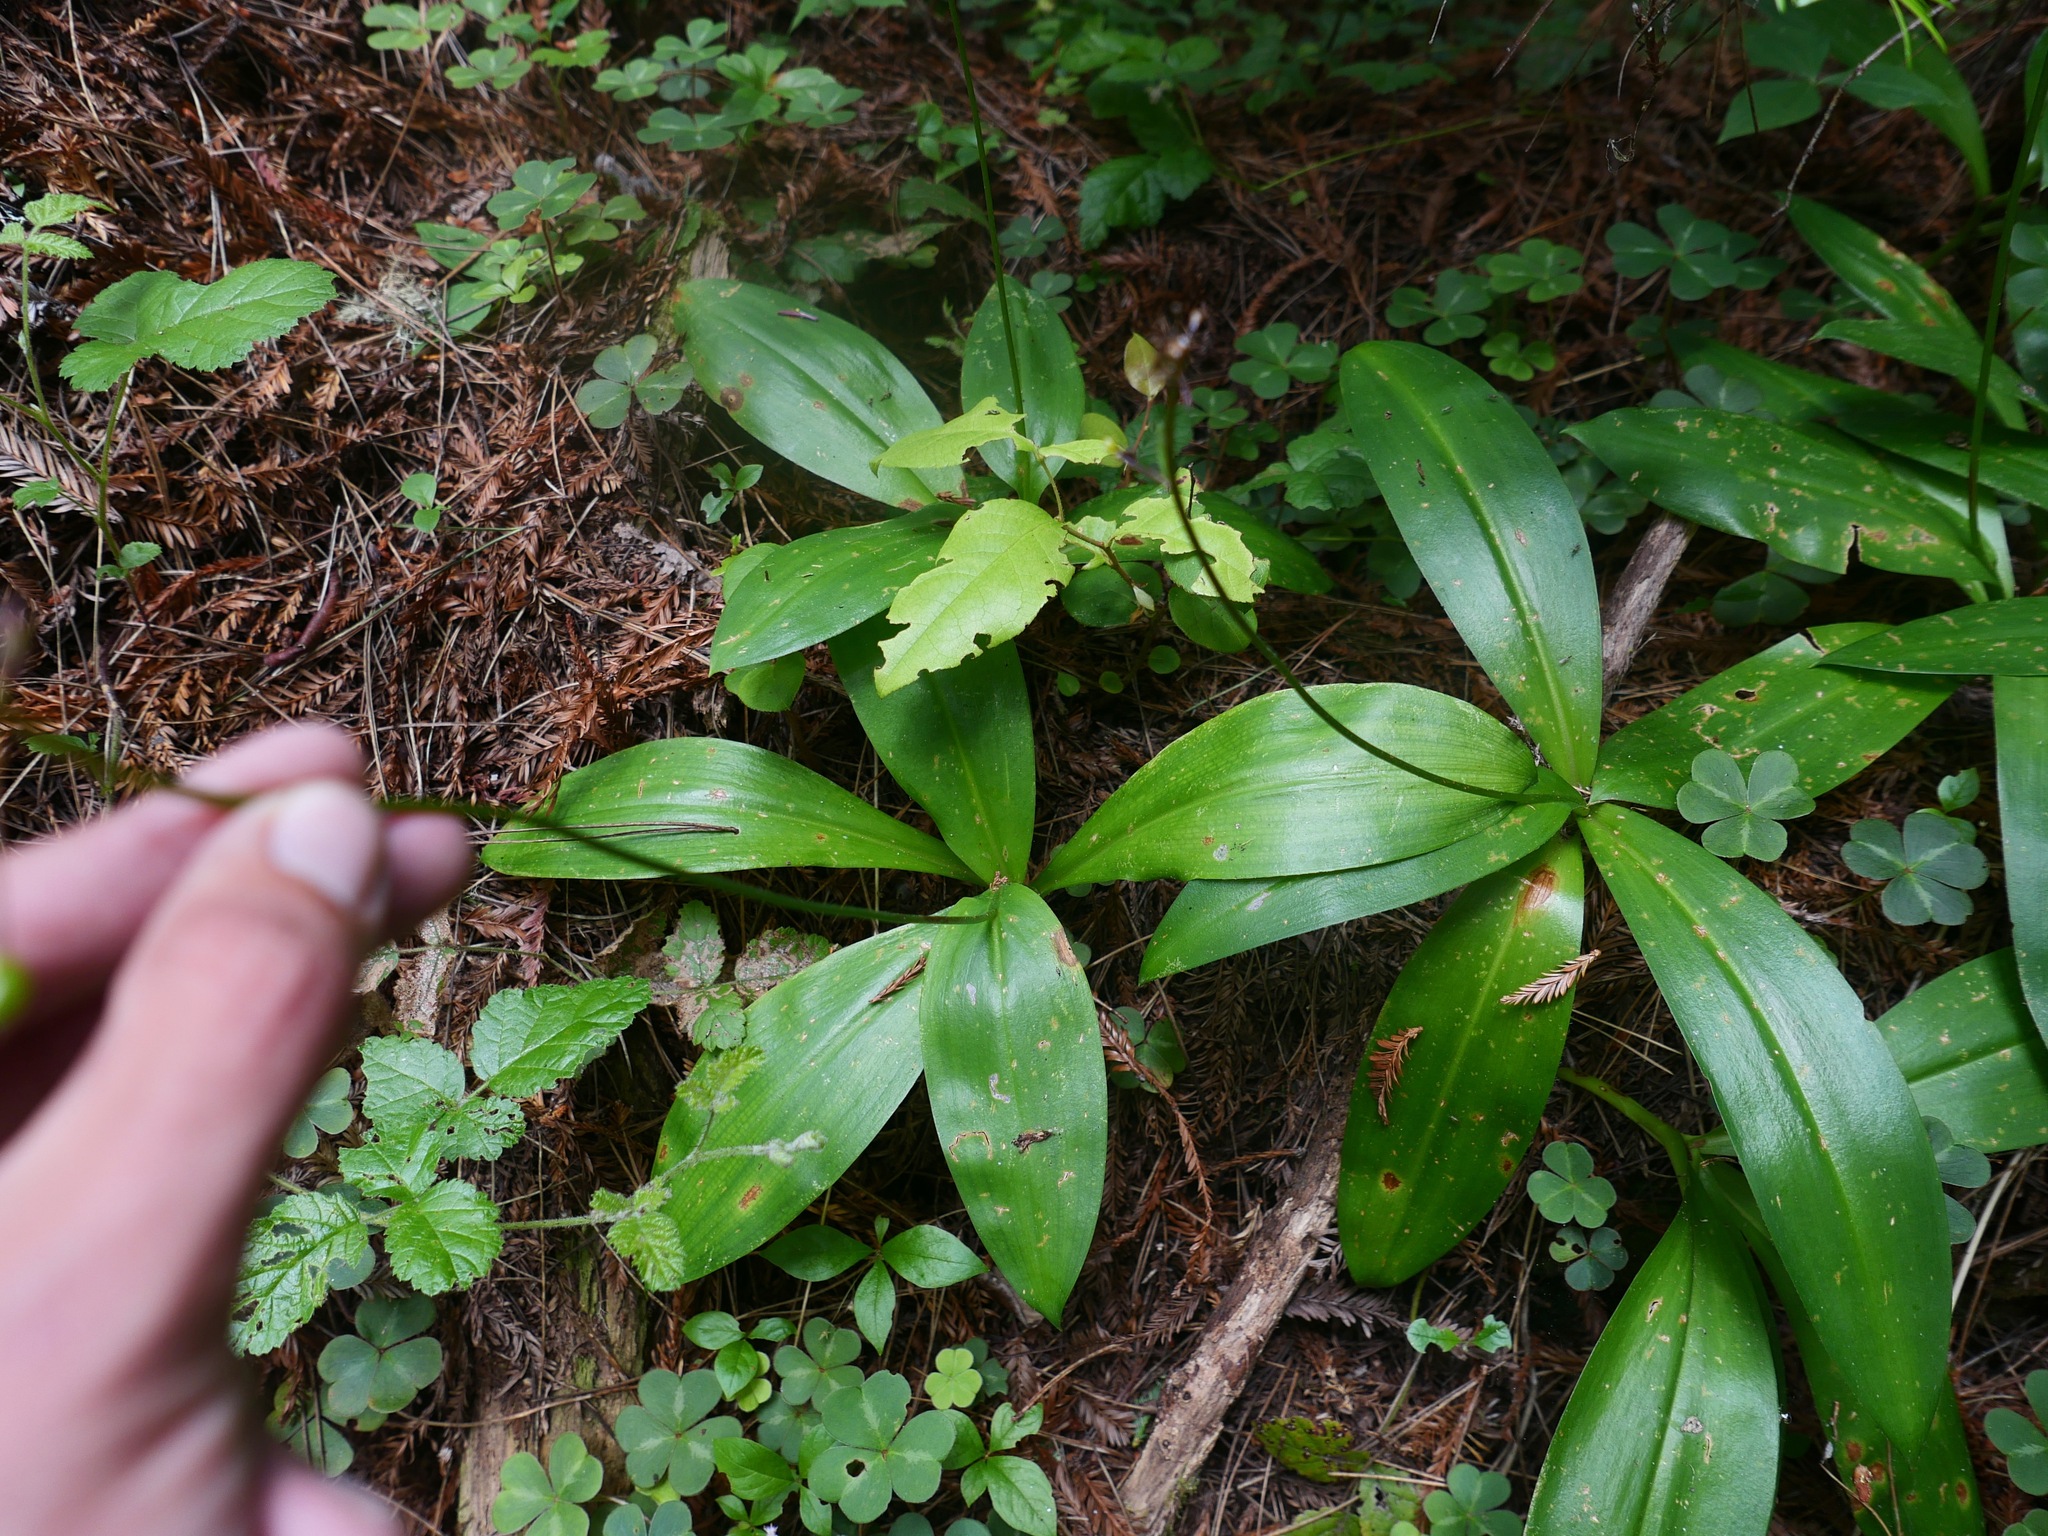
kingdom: Plantae
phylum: Tracheophyta
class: Liliopsida
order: Liliales
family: Liliaceae
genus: Clintonia
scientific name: Clintonia andrewsiana
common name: Red clintonia
